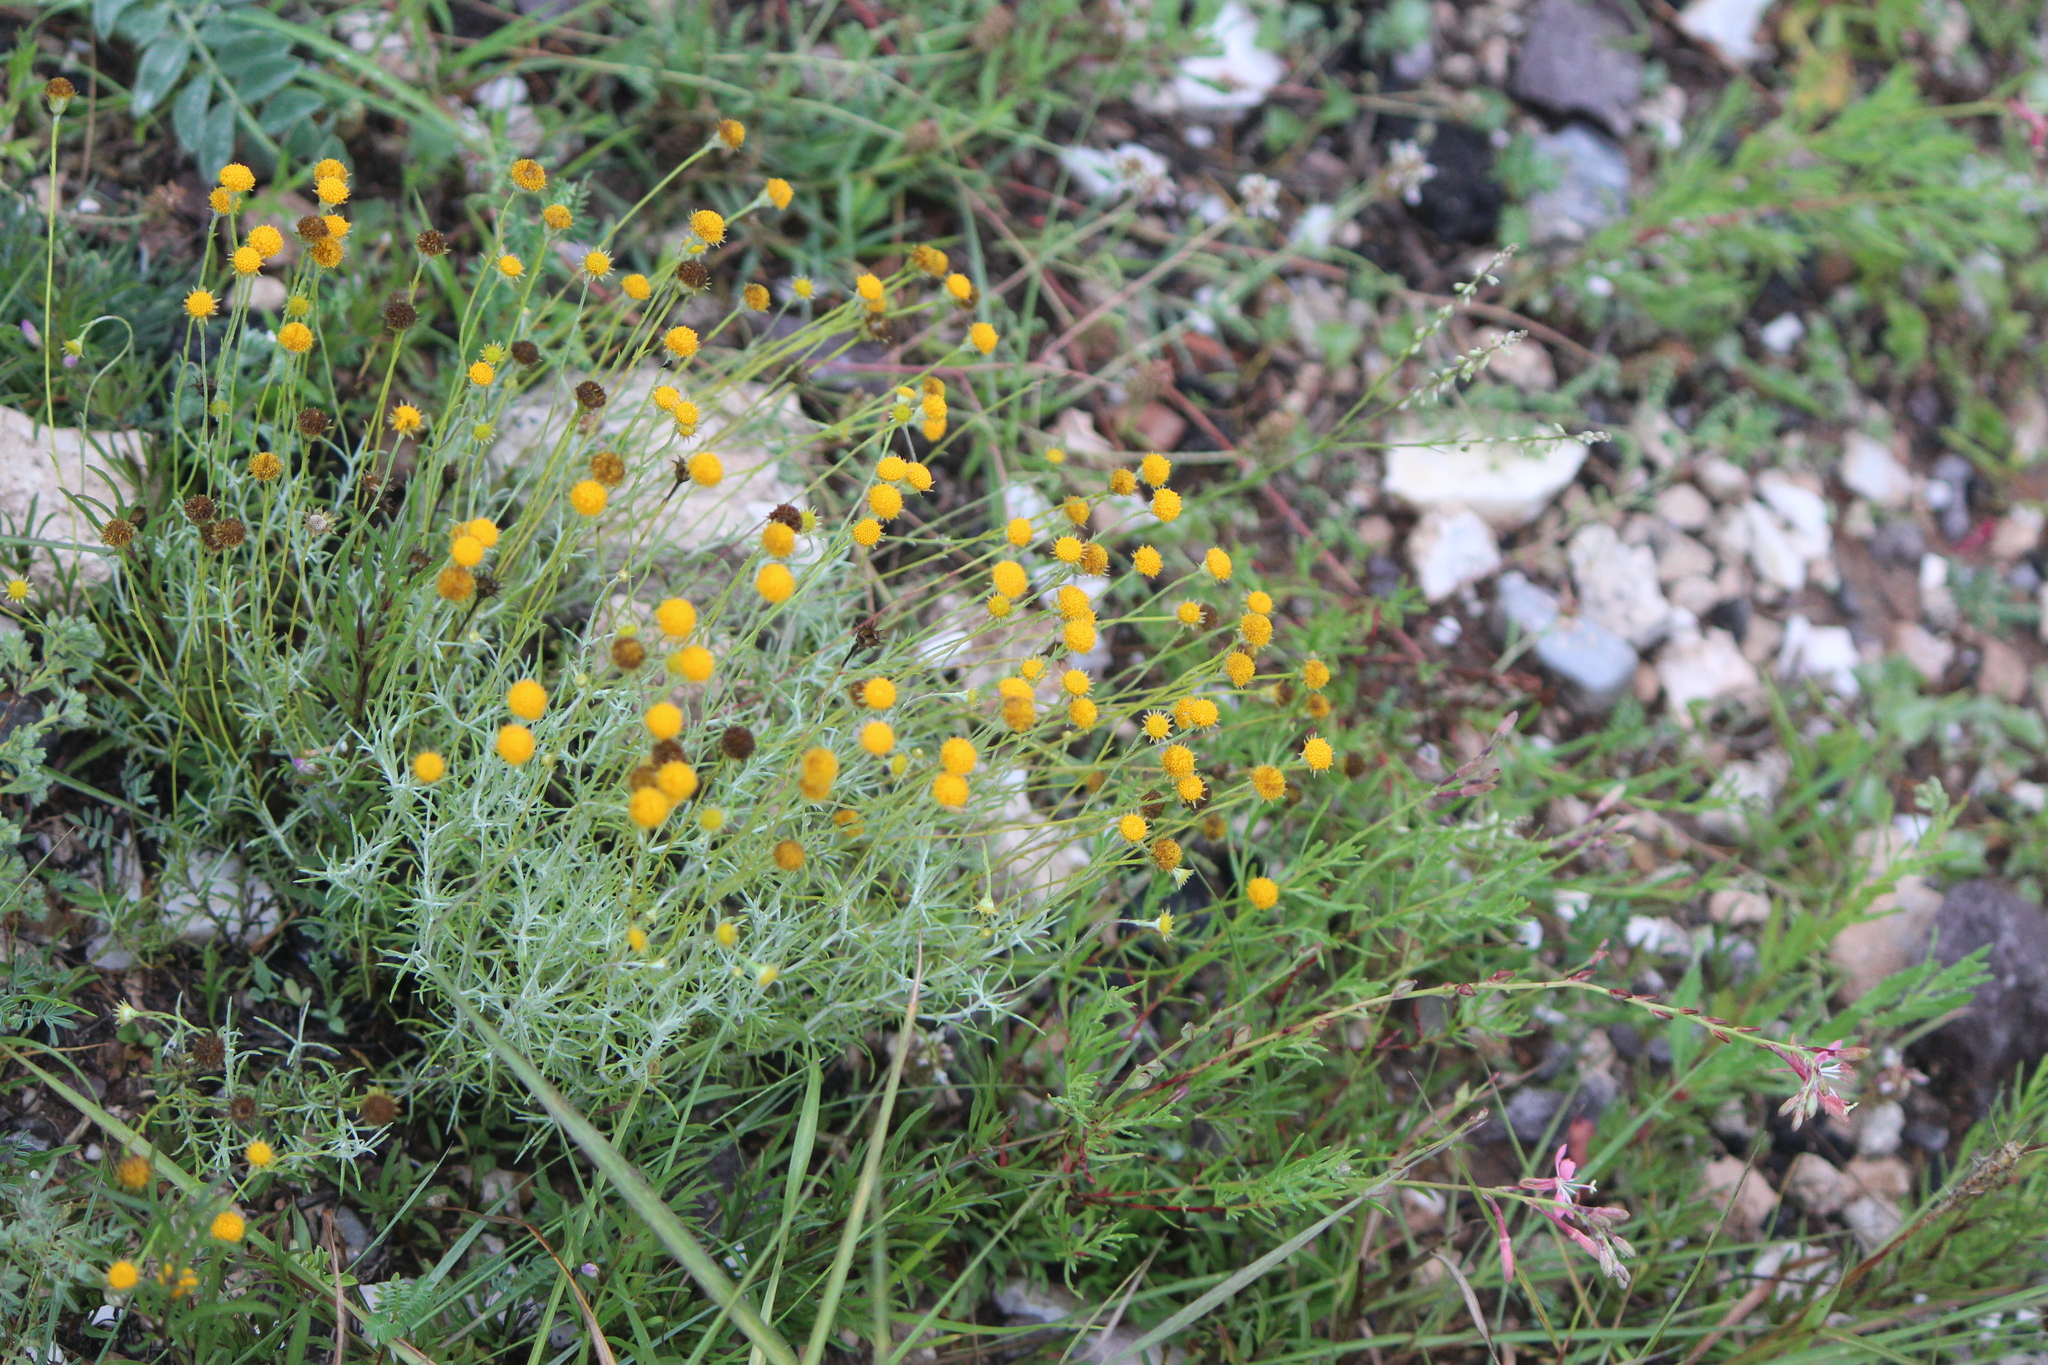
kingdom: Plantae
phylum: Tracheophyta
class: Magnoliopsida
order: Asterales
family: Asteraceae
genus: Thymophylla
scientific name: Thymophylla setifolia
